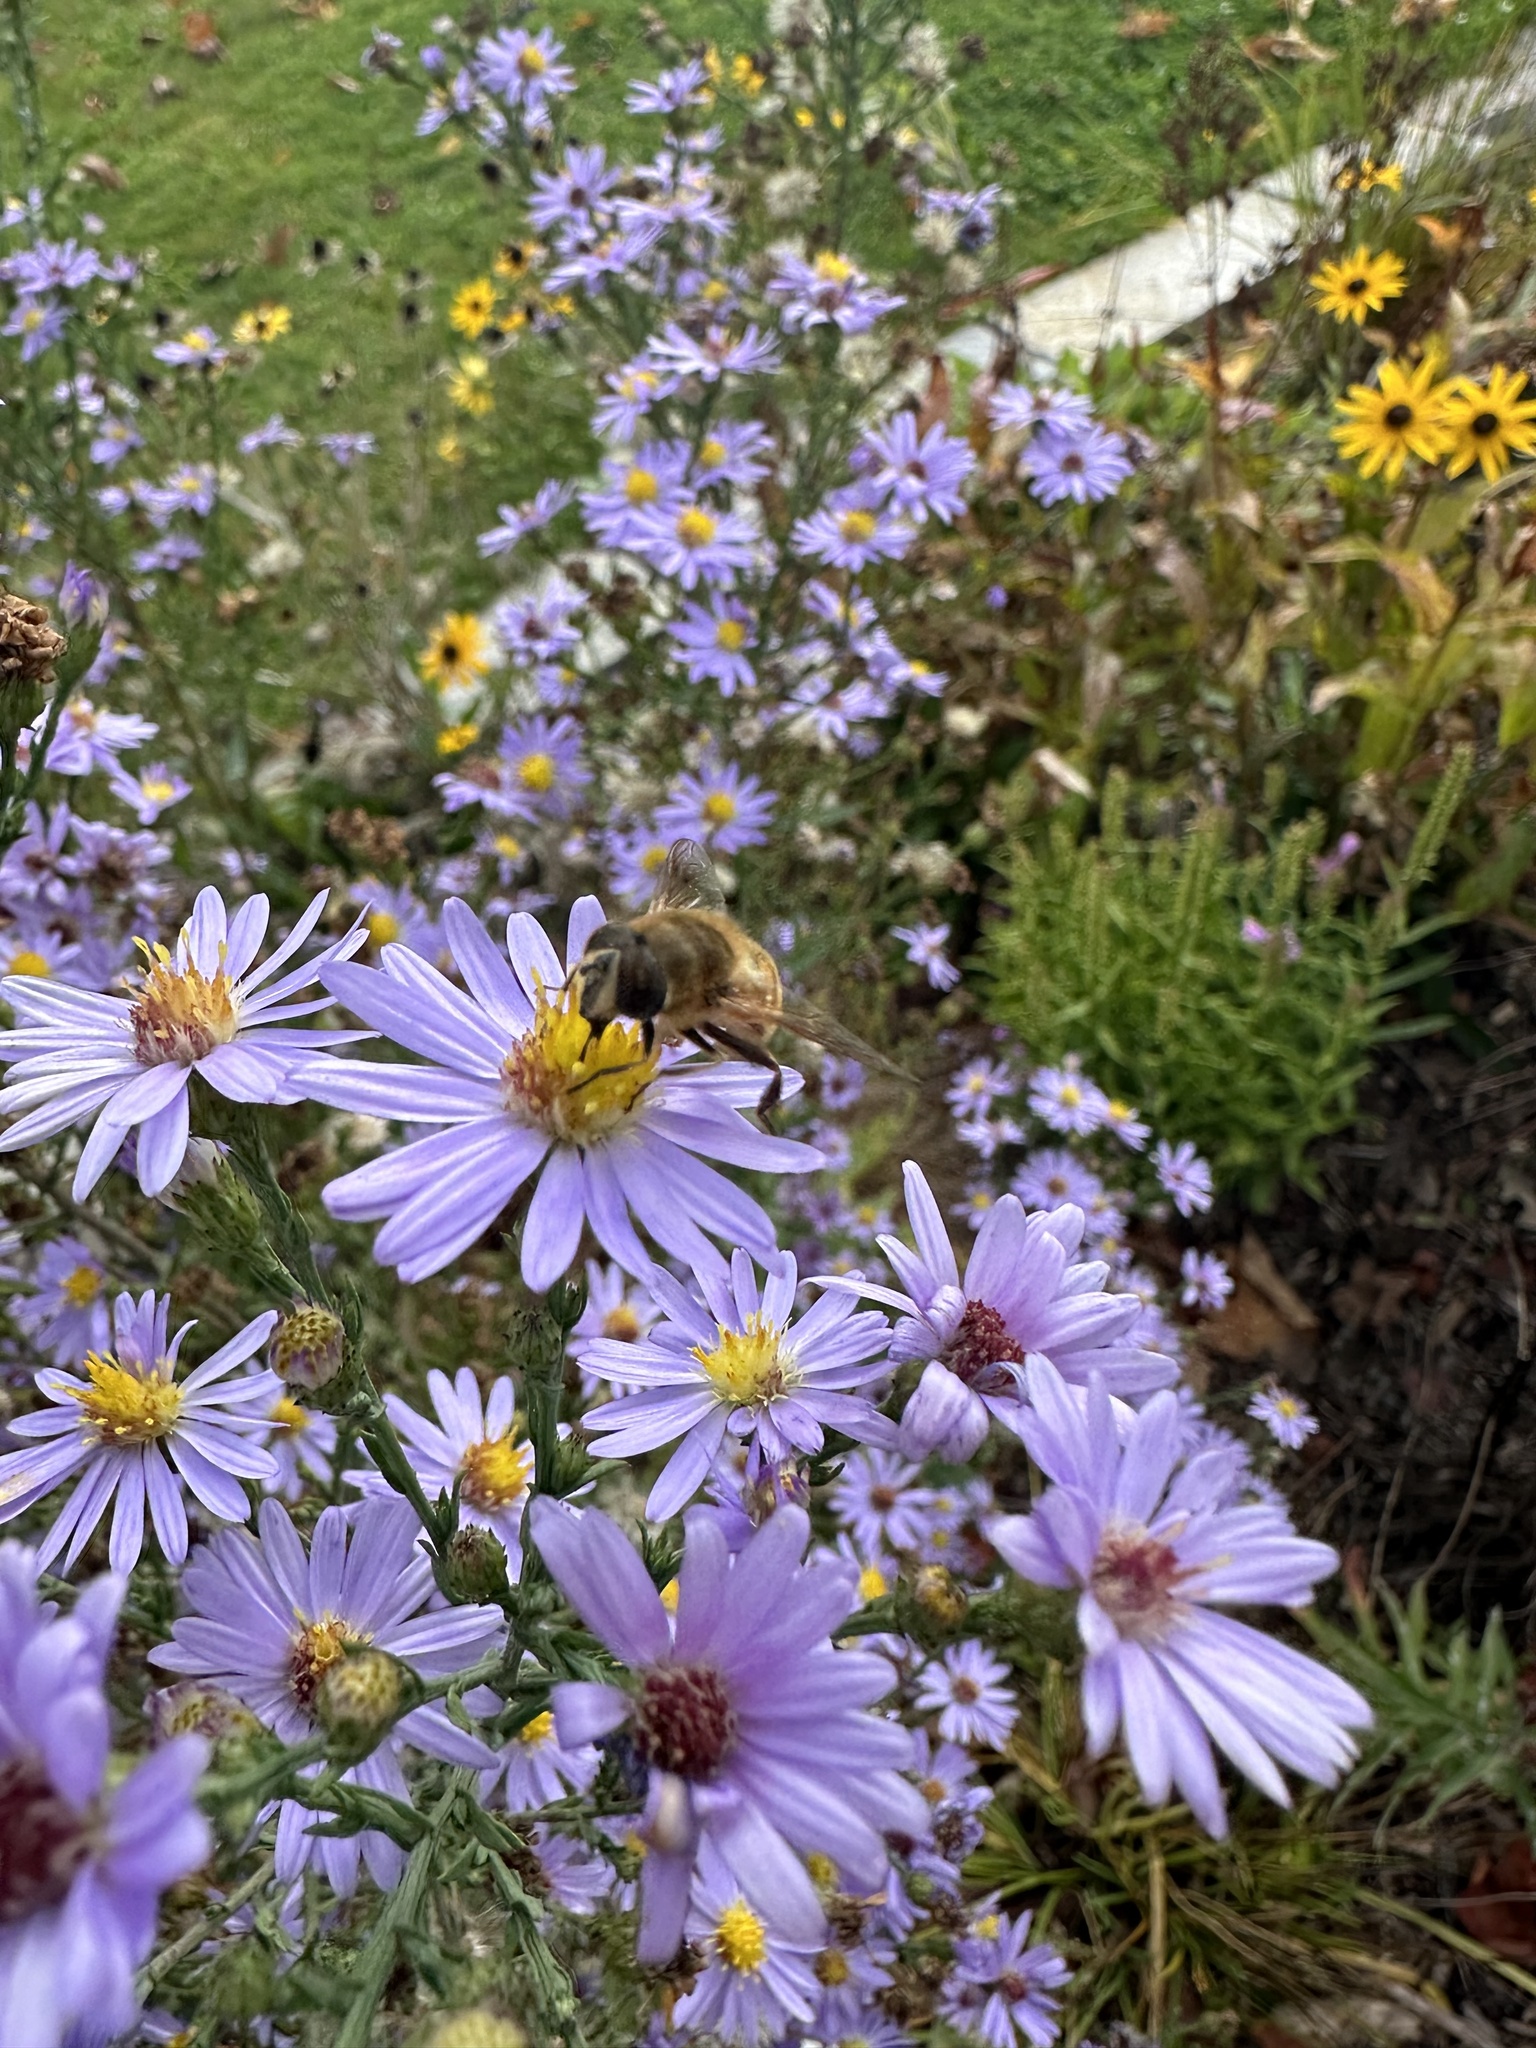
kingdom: Animalia
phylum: Arthropoda
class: Insecta
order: Diptera
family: Syrphidae
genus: Eristalis
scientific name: Eristalis tenax
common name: Drone fly
